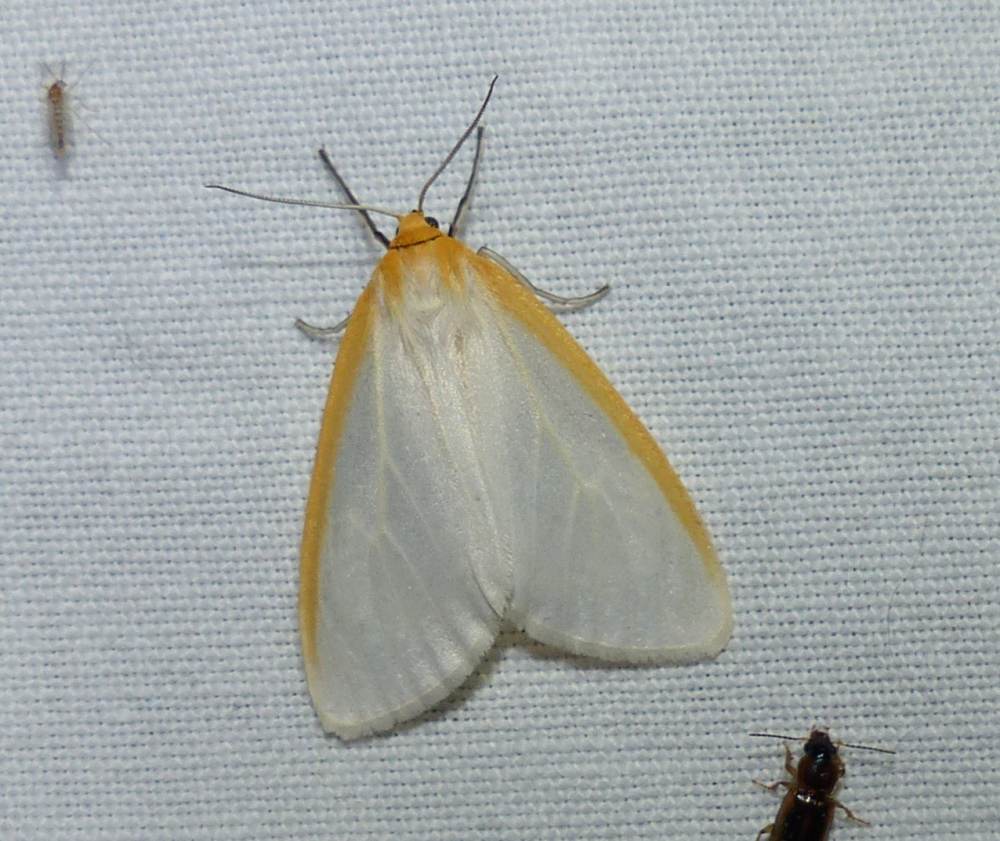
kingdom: Animalia
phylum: Arthropoda
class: Insecta
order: Lepidoptera
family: Erebidae
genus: Cycnia
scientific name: Cycnia tenera
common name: Delicate cycnia moth
